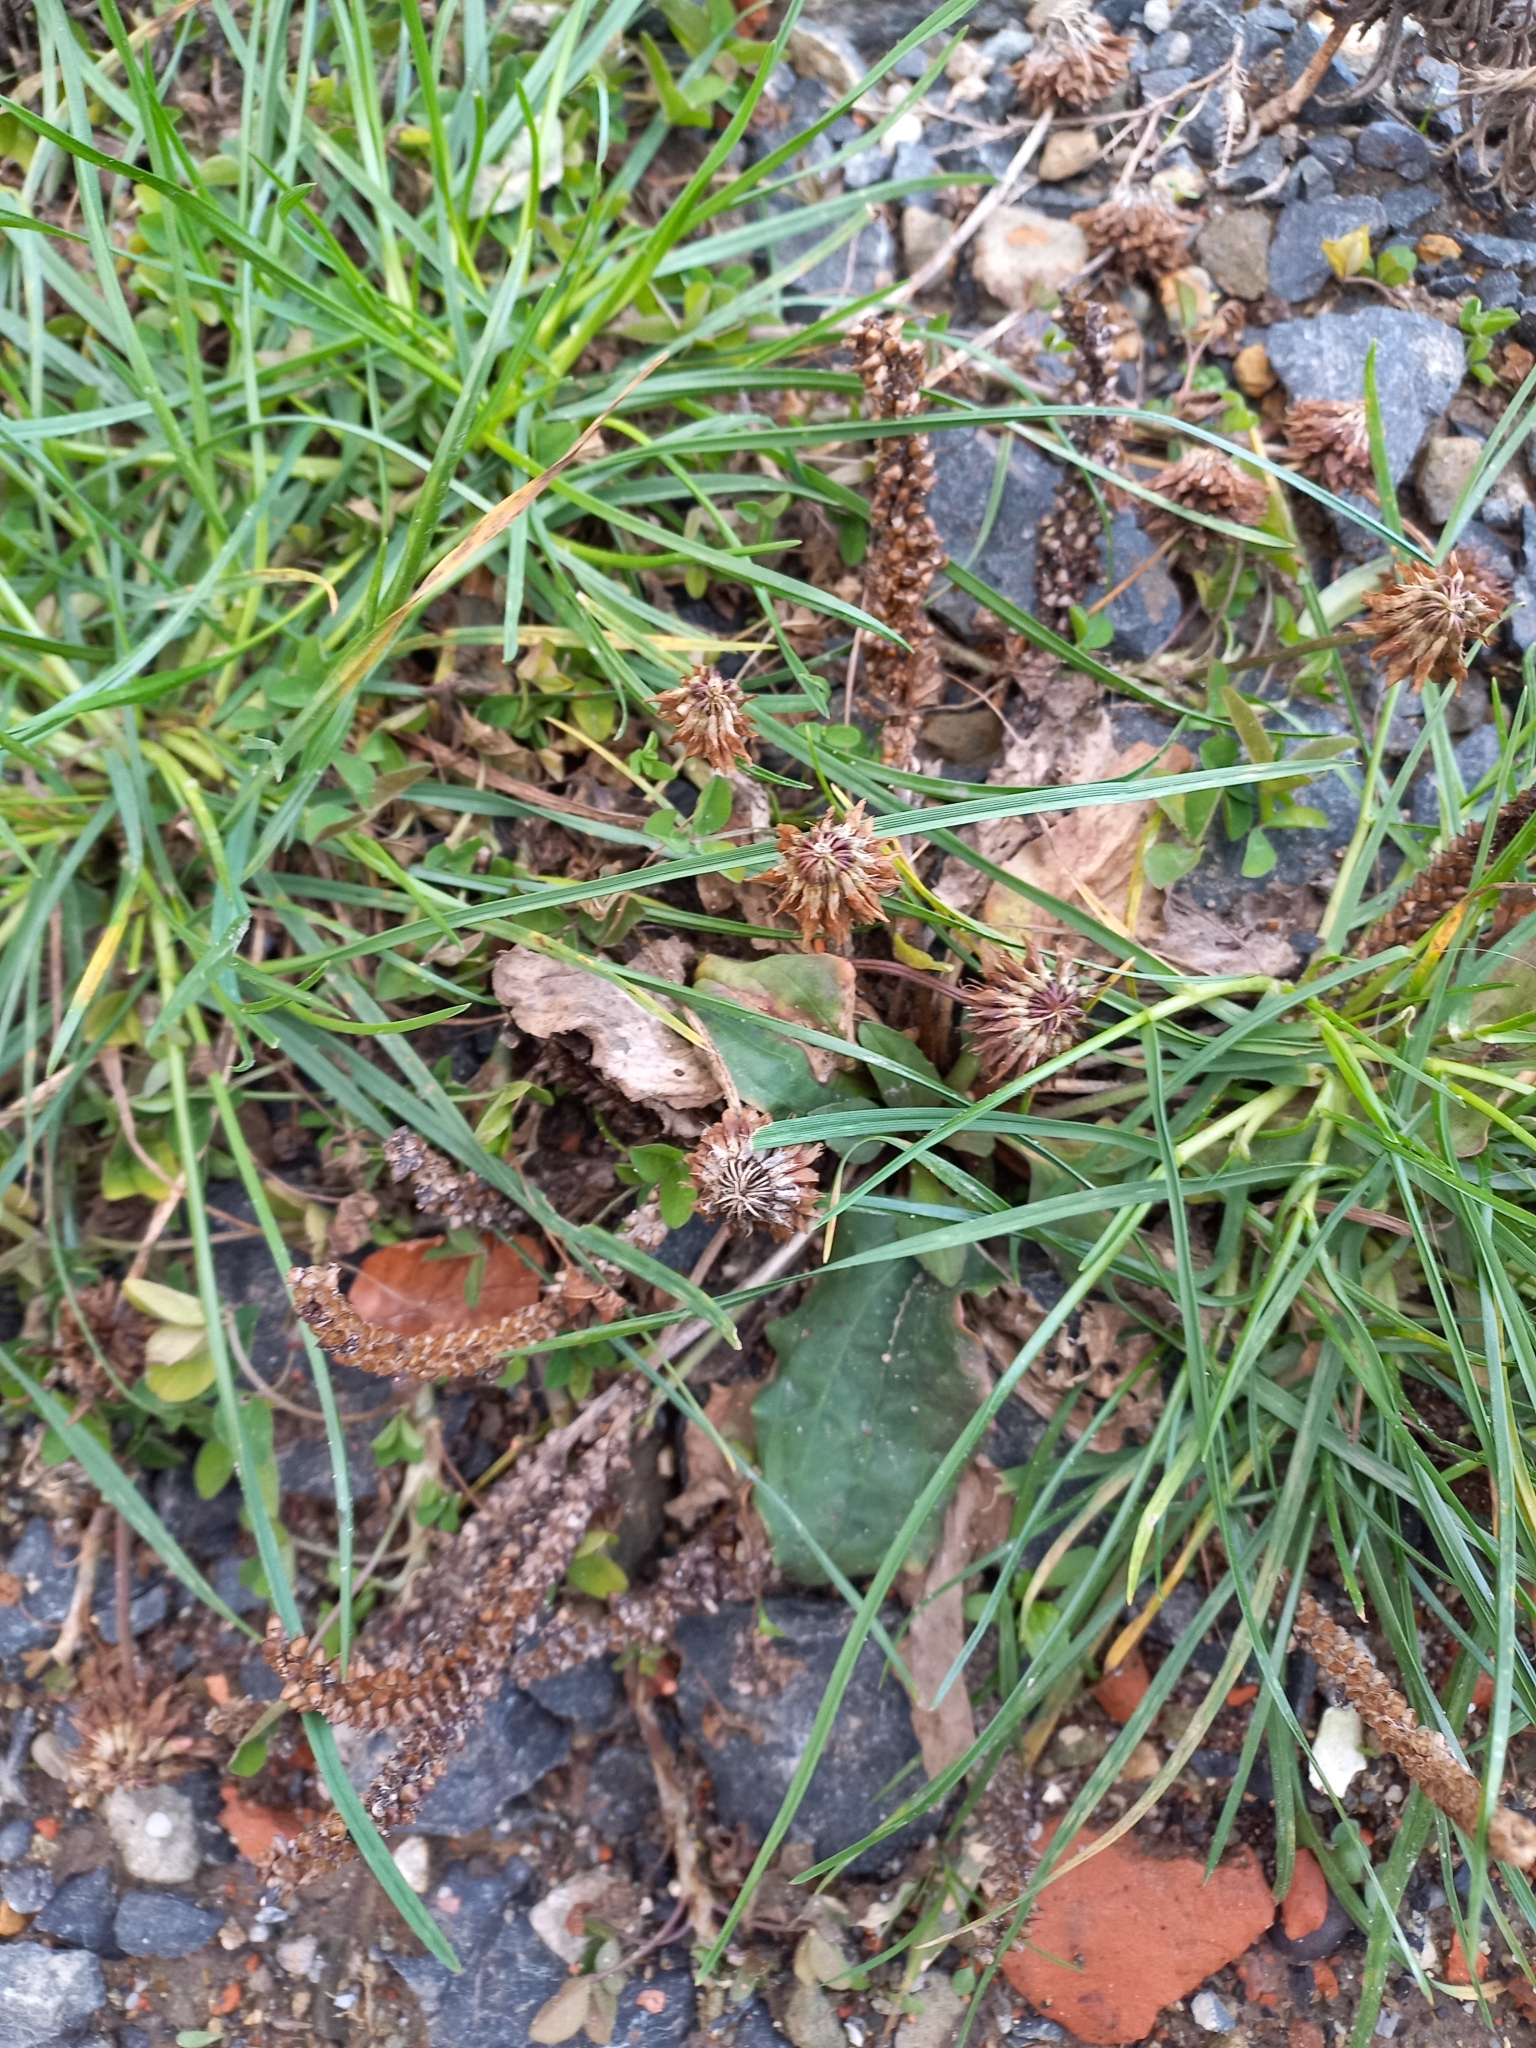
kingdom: Plantae
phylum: Tracheophyta
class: Magnoliopsida
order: Lamiales
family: Plantaginaceae
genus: Plantago
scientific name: Plantago major
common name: Common plantain
